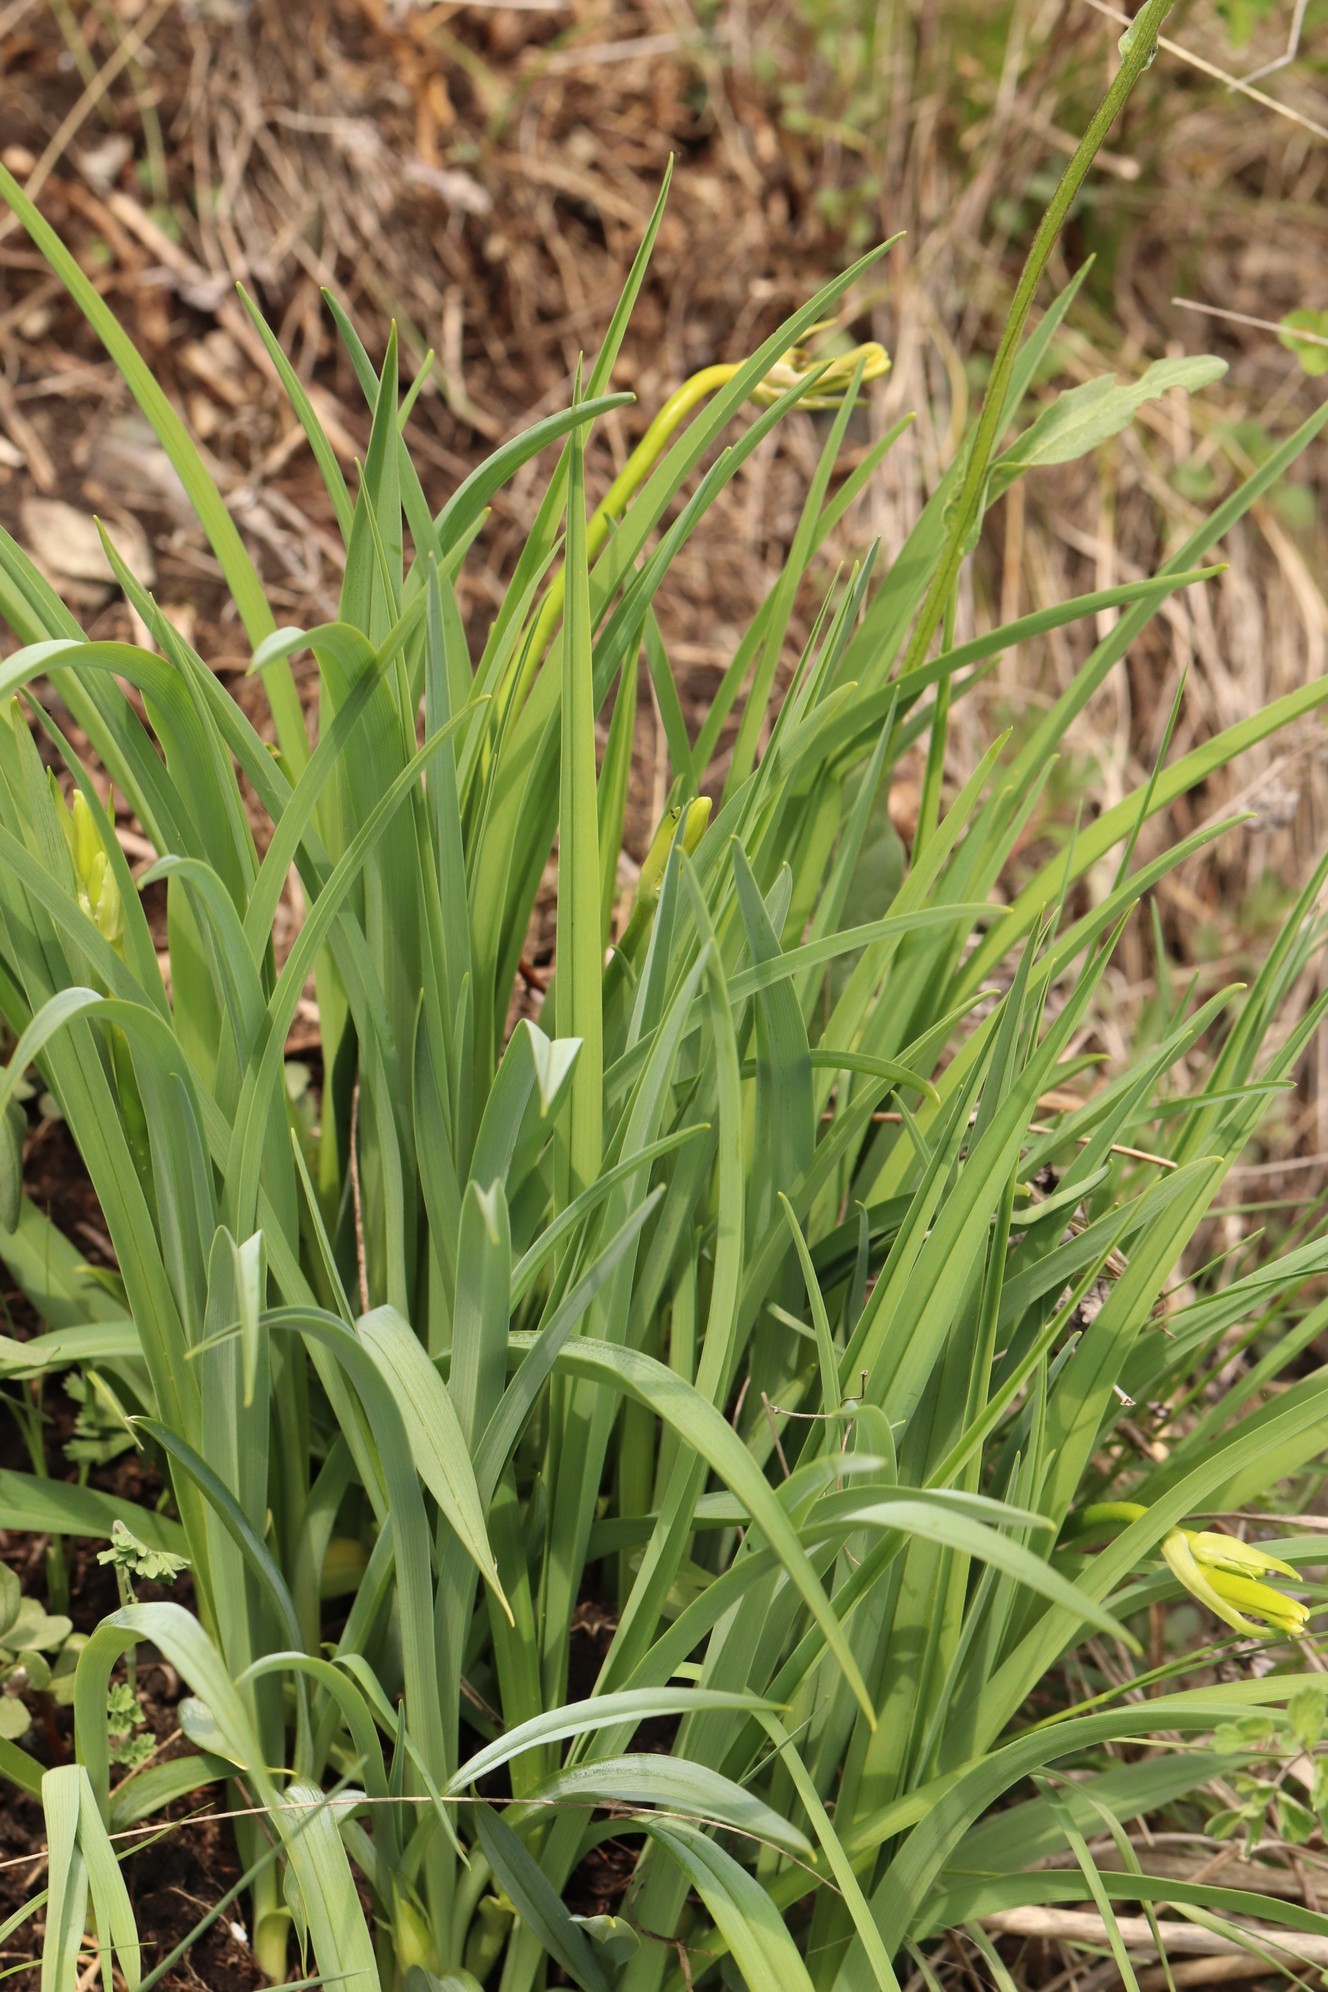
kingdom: Plantae
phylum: Tracheophyta
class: Liliopsida
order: Asparagales
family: Asphodelaceae
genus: Hemerocallis
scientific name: Hemerocallis minor
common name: Small daylily
